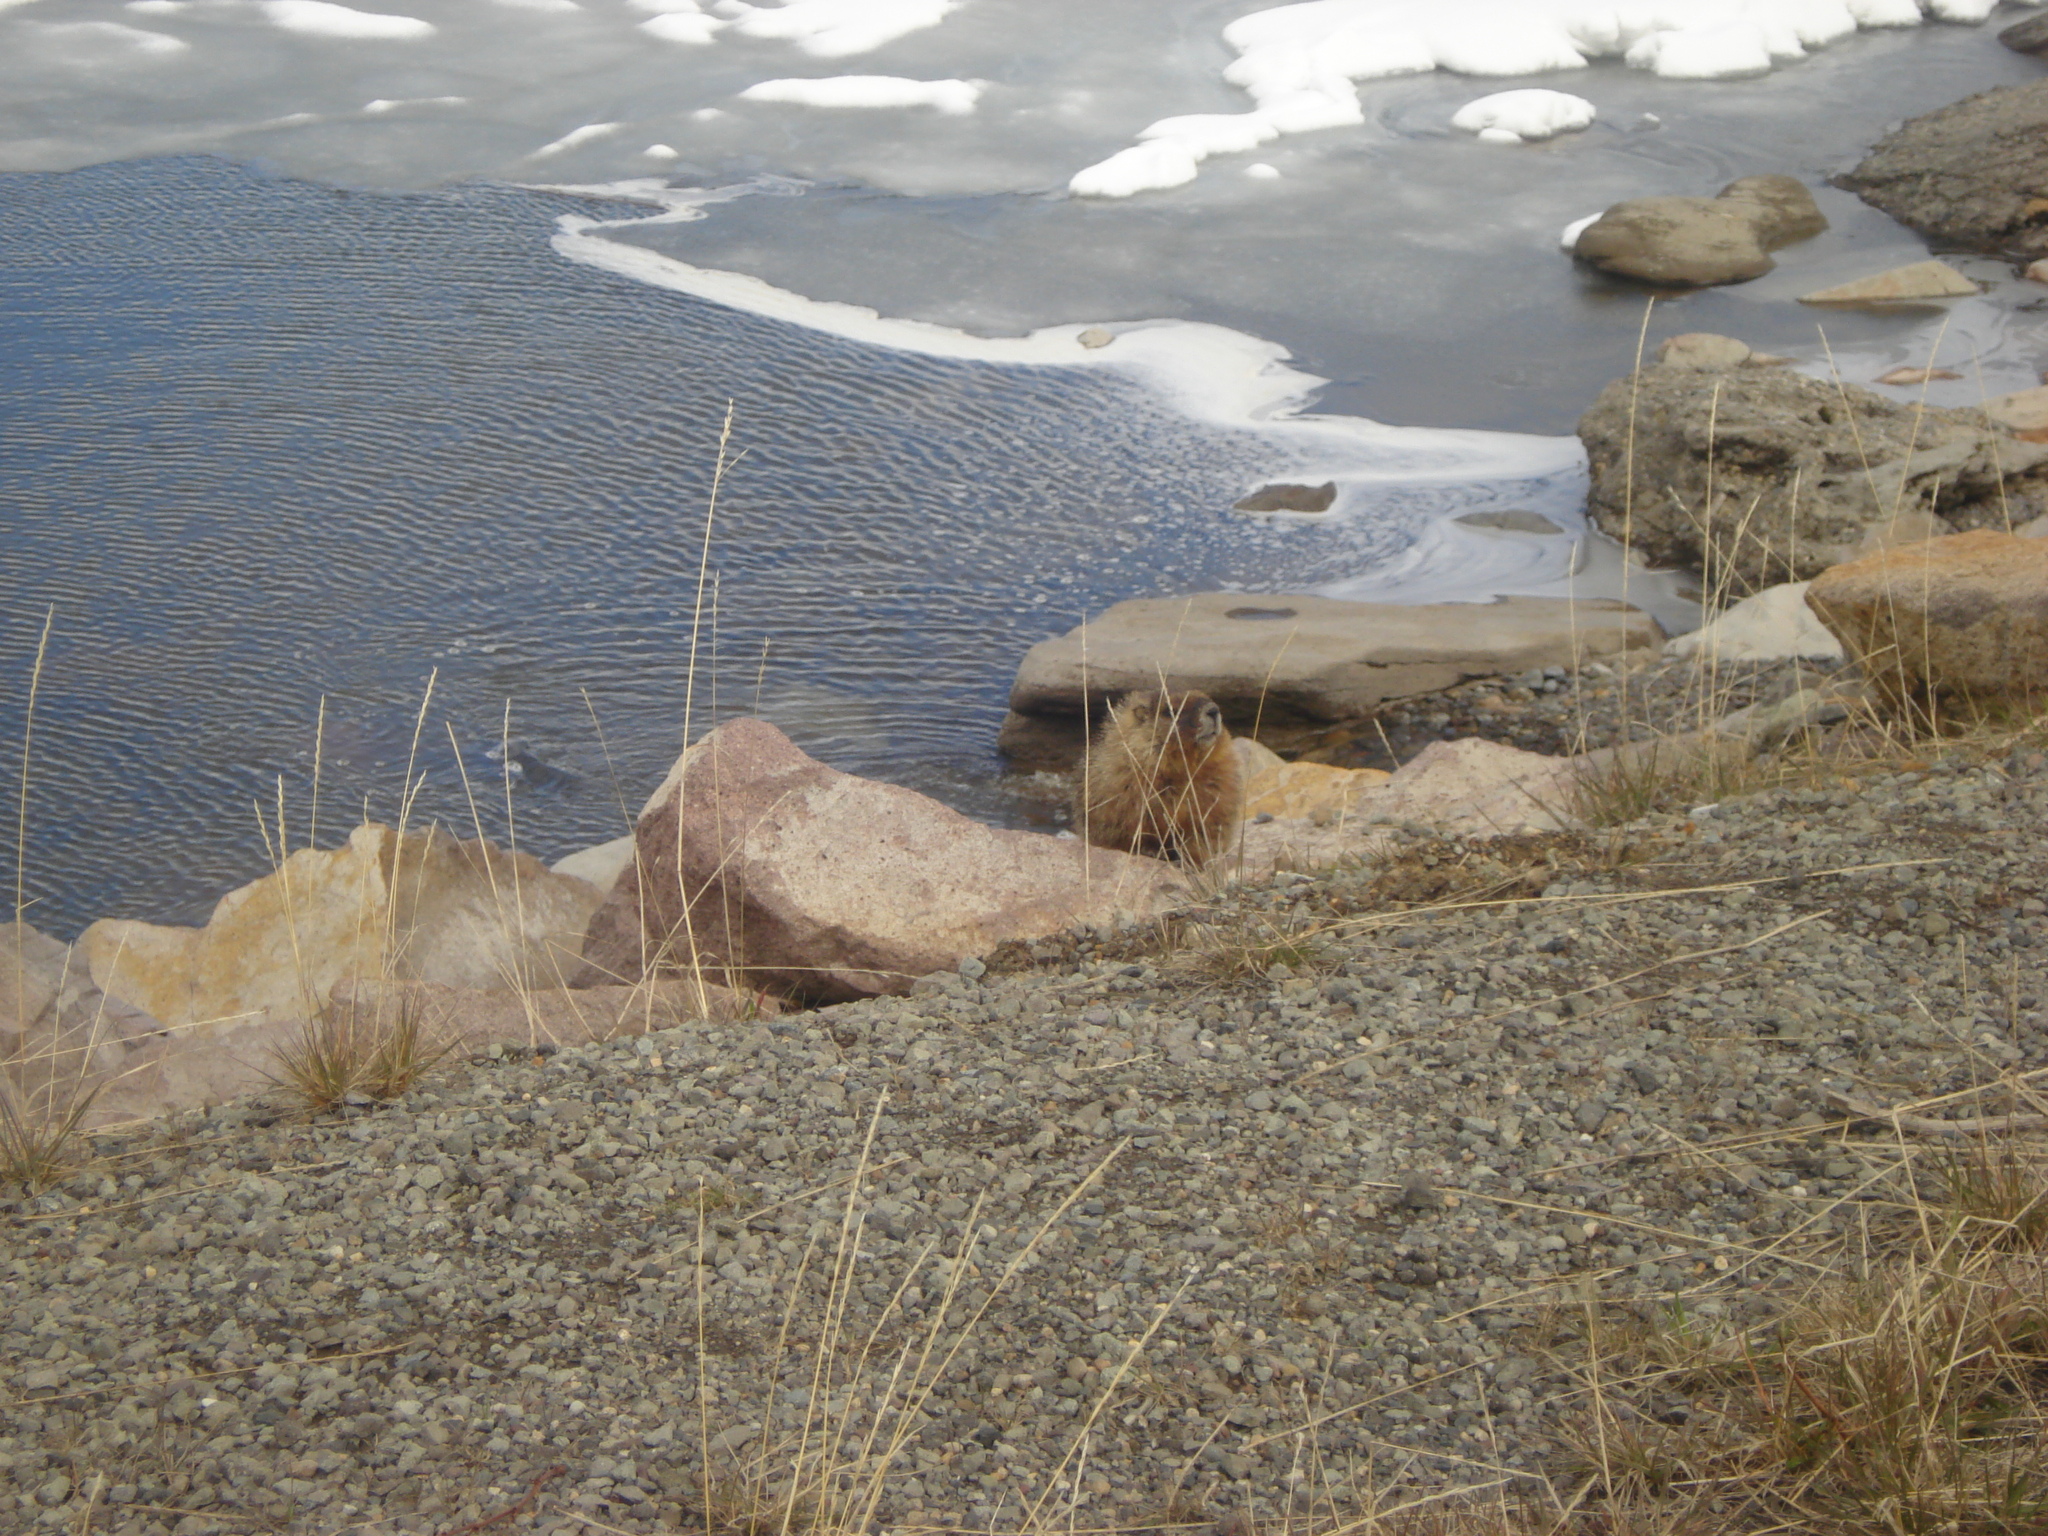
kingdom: Animalia
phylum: Chordata
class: Mammalia
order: Rodentia
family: Sciuridae
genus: Marmota
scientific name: Marmota flaviventris
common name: Yellow-bellied marmot
